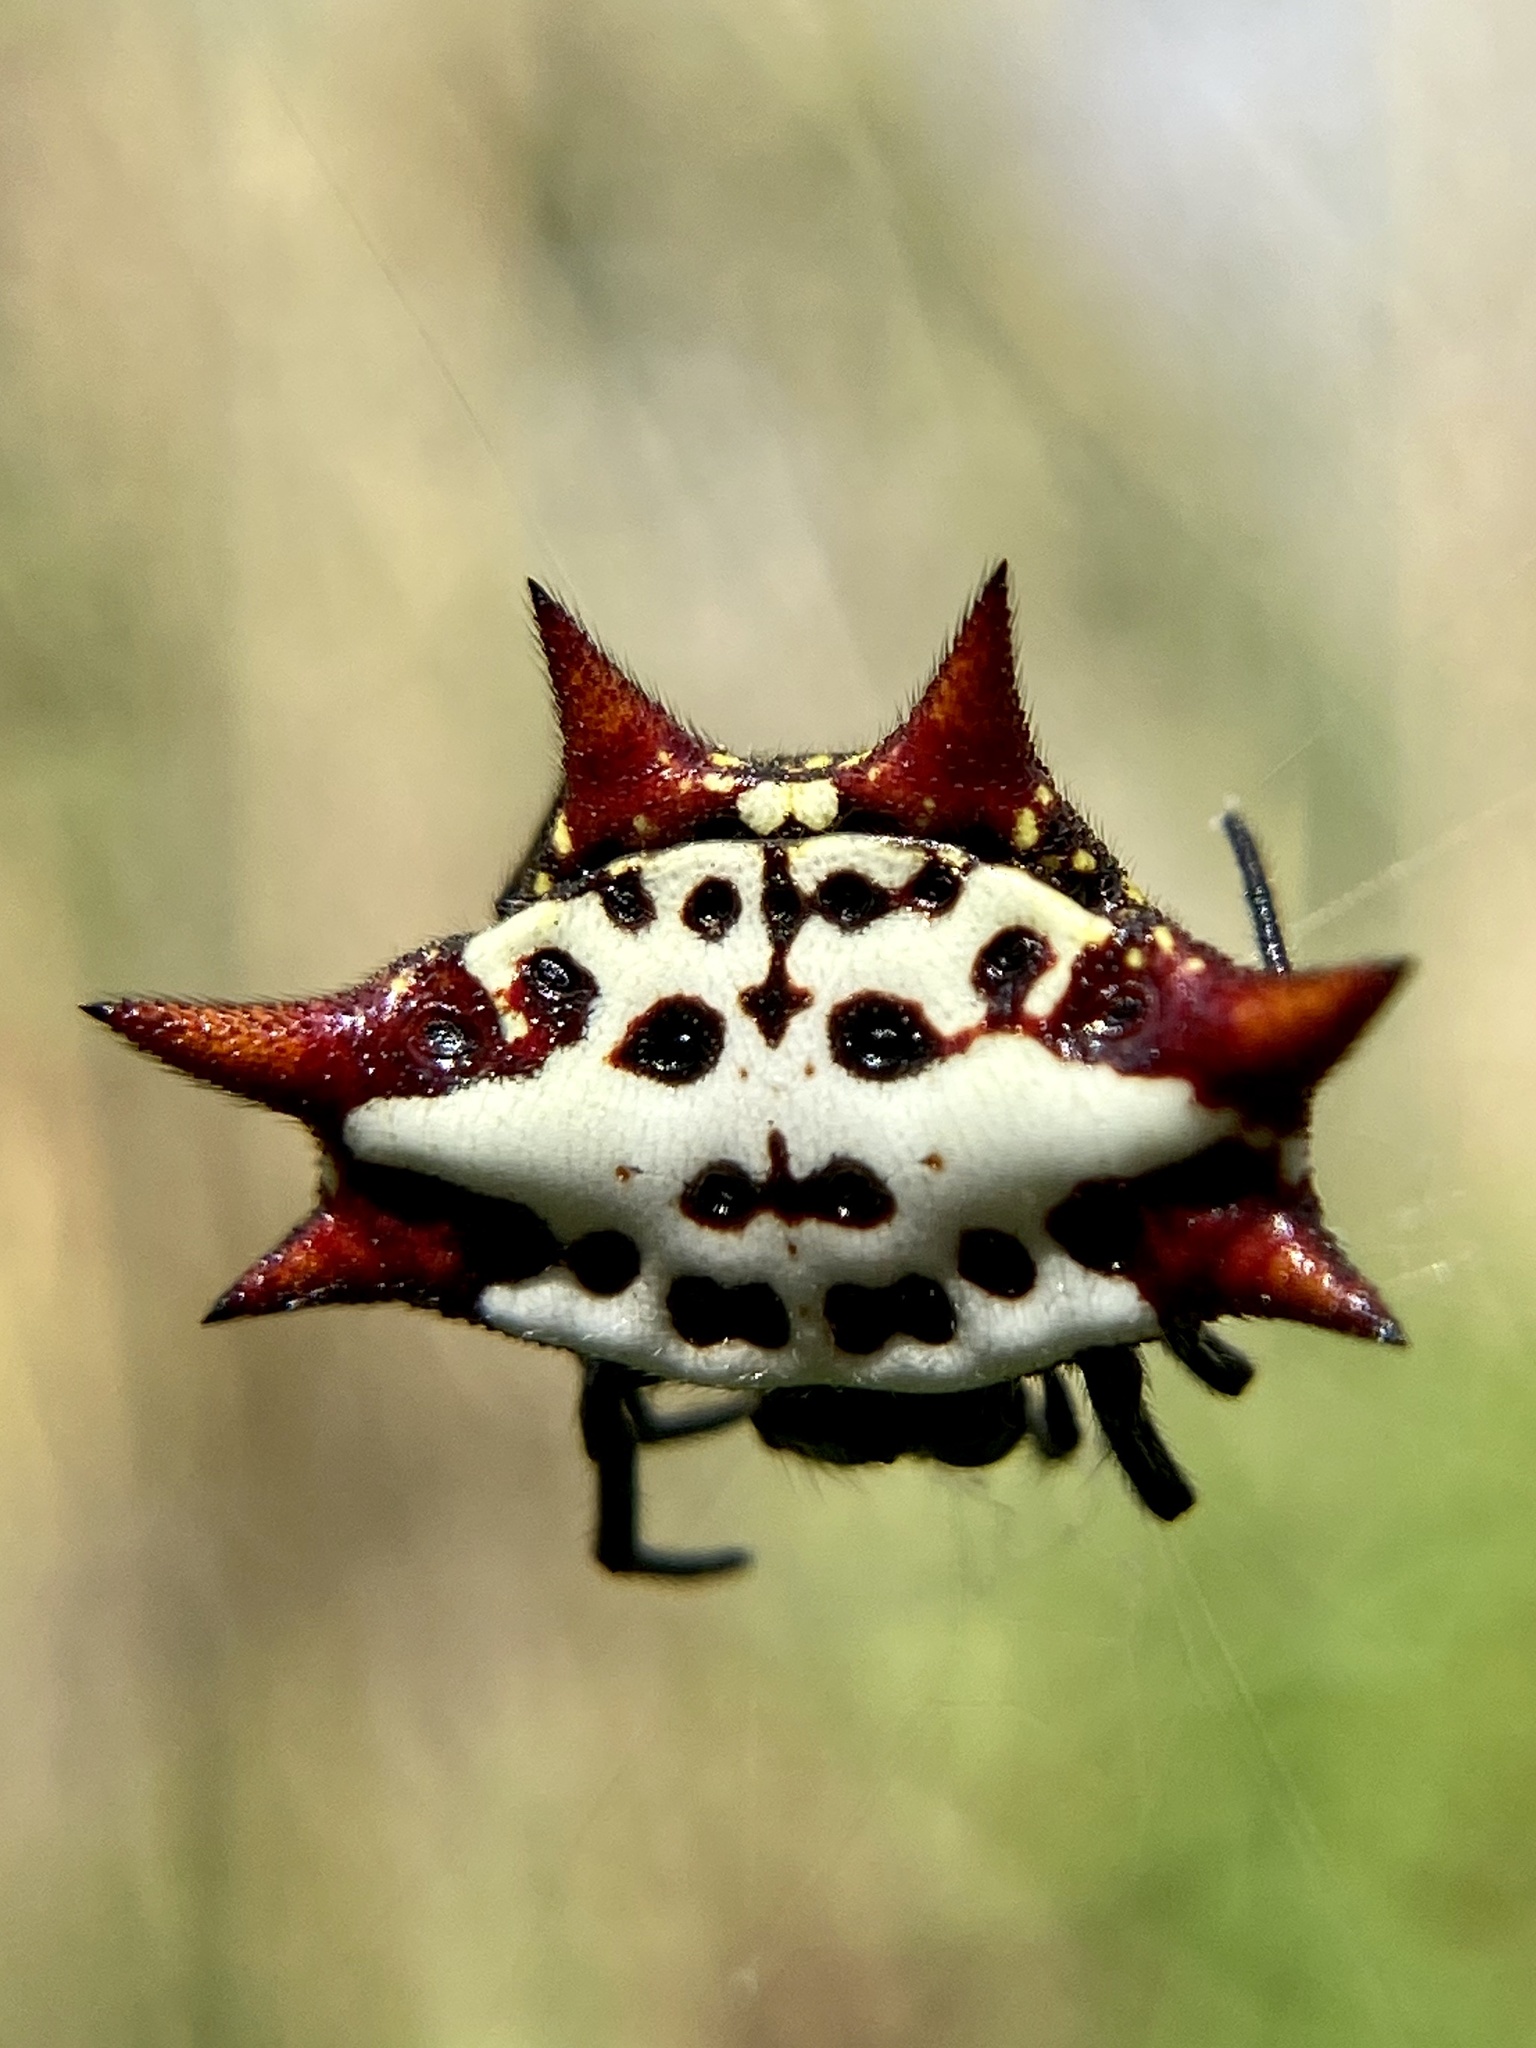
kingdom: Animalia
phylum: Arthropoda
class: Arachnida
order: Araneae
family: Araneidae
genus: Gasteracantha
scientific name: Gasteracantha cancriformis
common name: Orb weavers
